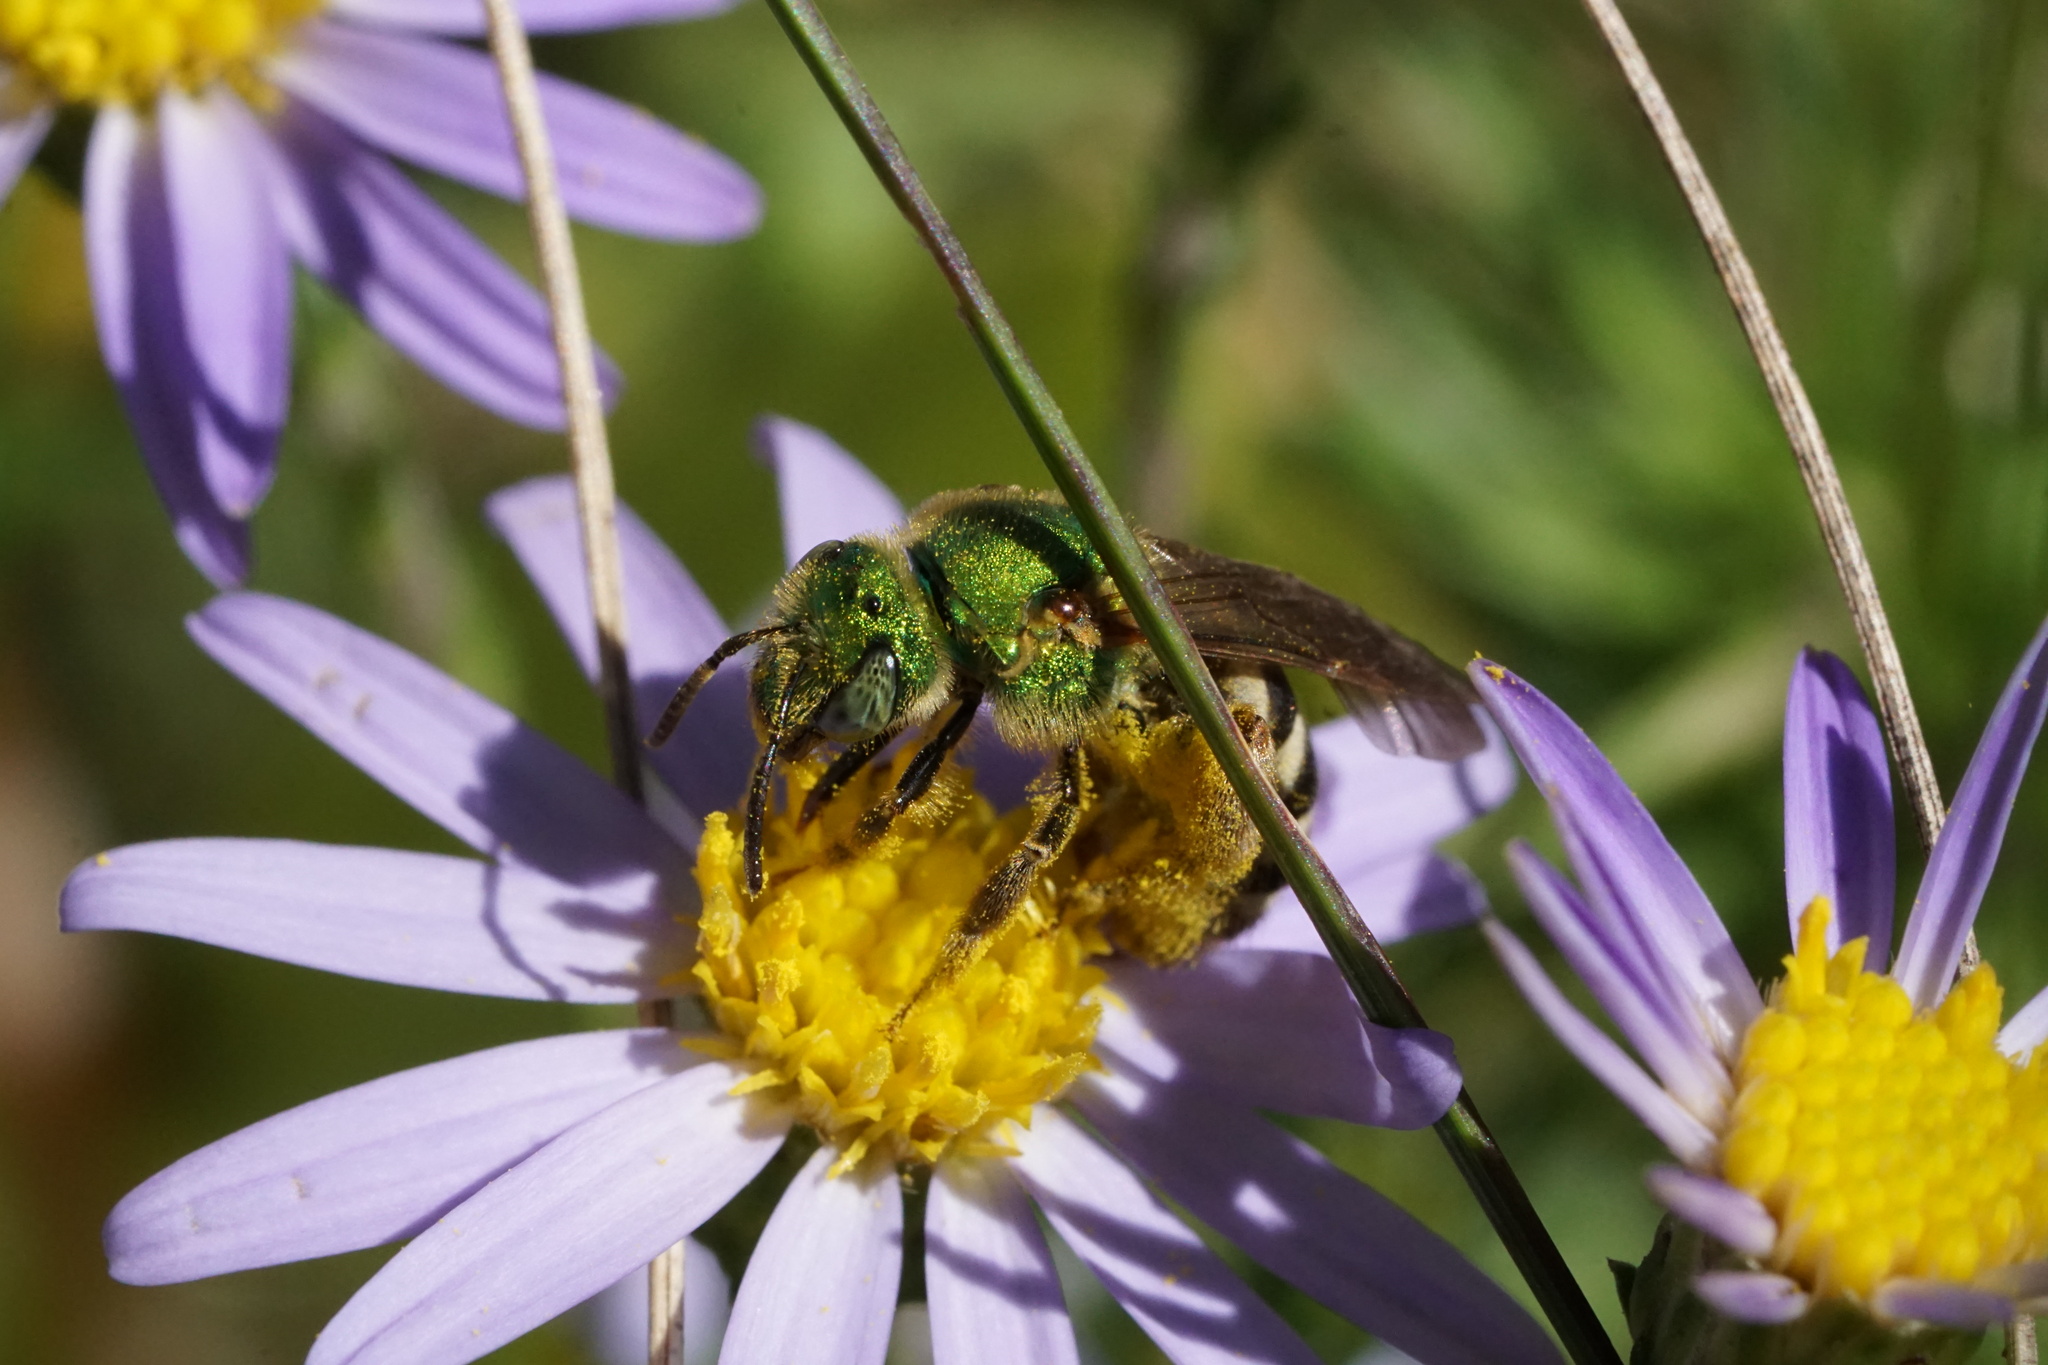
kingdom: Animalia
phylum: Arthropoda
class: Insecta
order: Hymenoptera
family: Halictidae
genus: Agapostemon
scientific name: Agapostemon virescens
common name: Bicolored striped sweat bee
